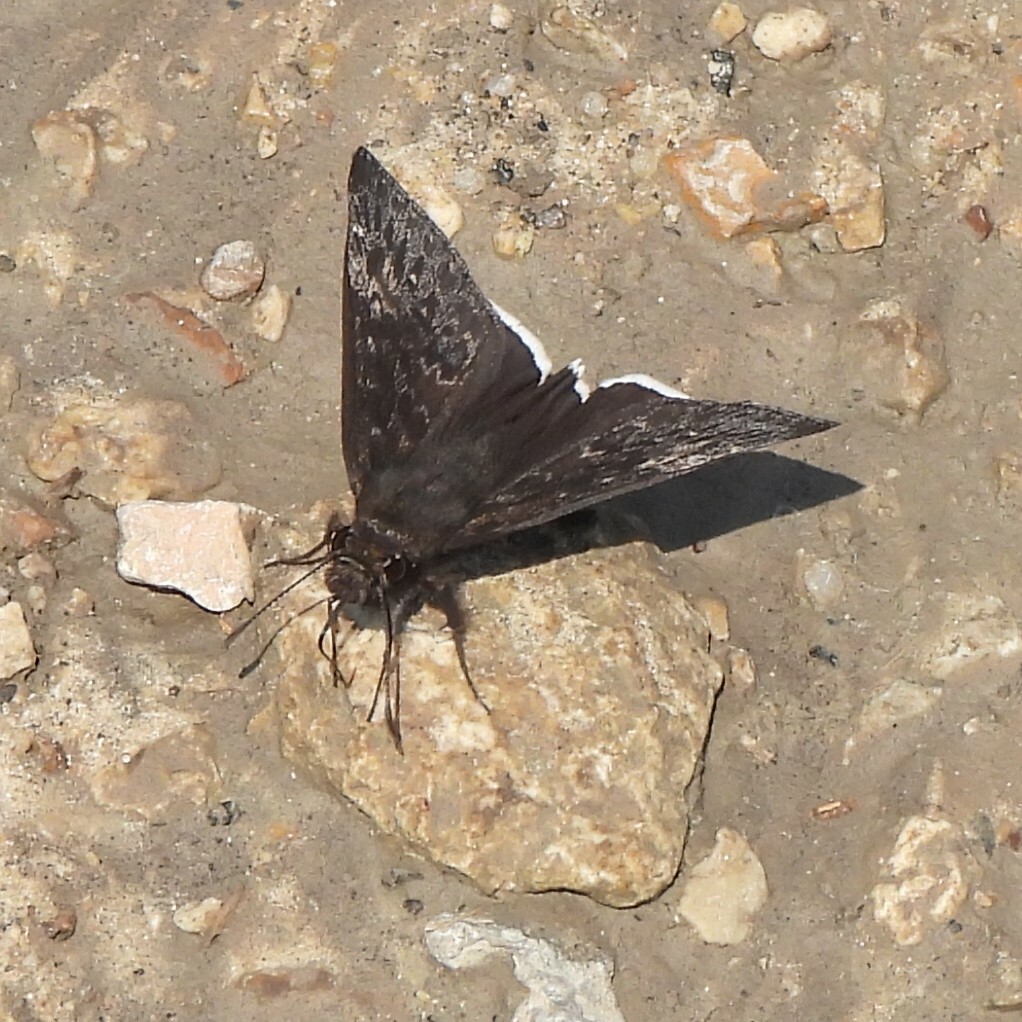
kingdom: Animalia
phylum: Arthropoda
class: Insecta
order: Lepidoptera
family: Hesperiidae
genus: Erynnis
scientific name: Erynnis tristis
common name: Mournful duskywing
